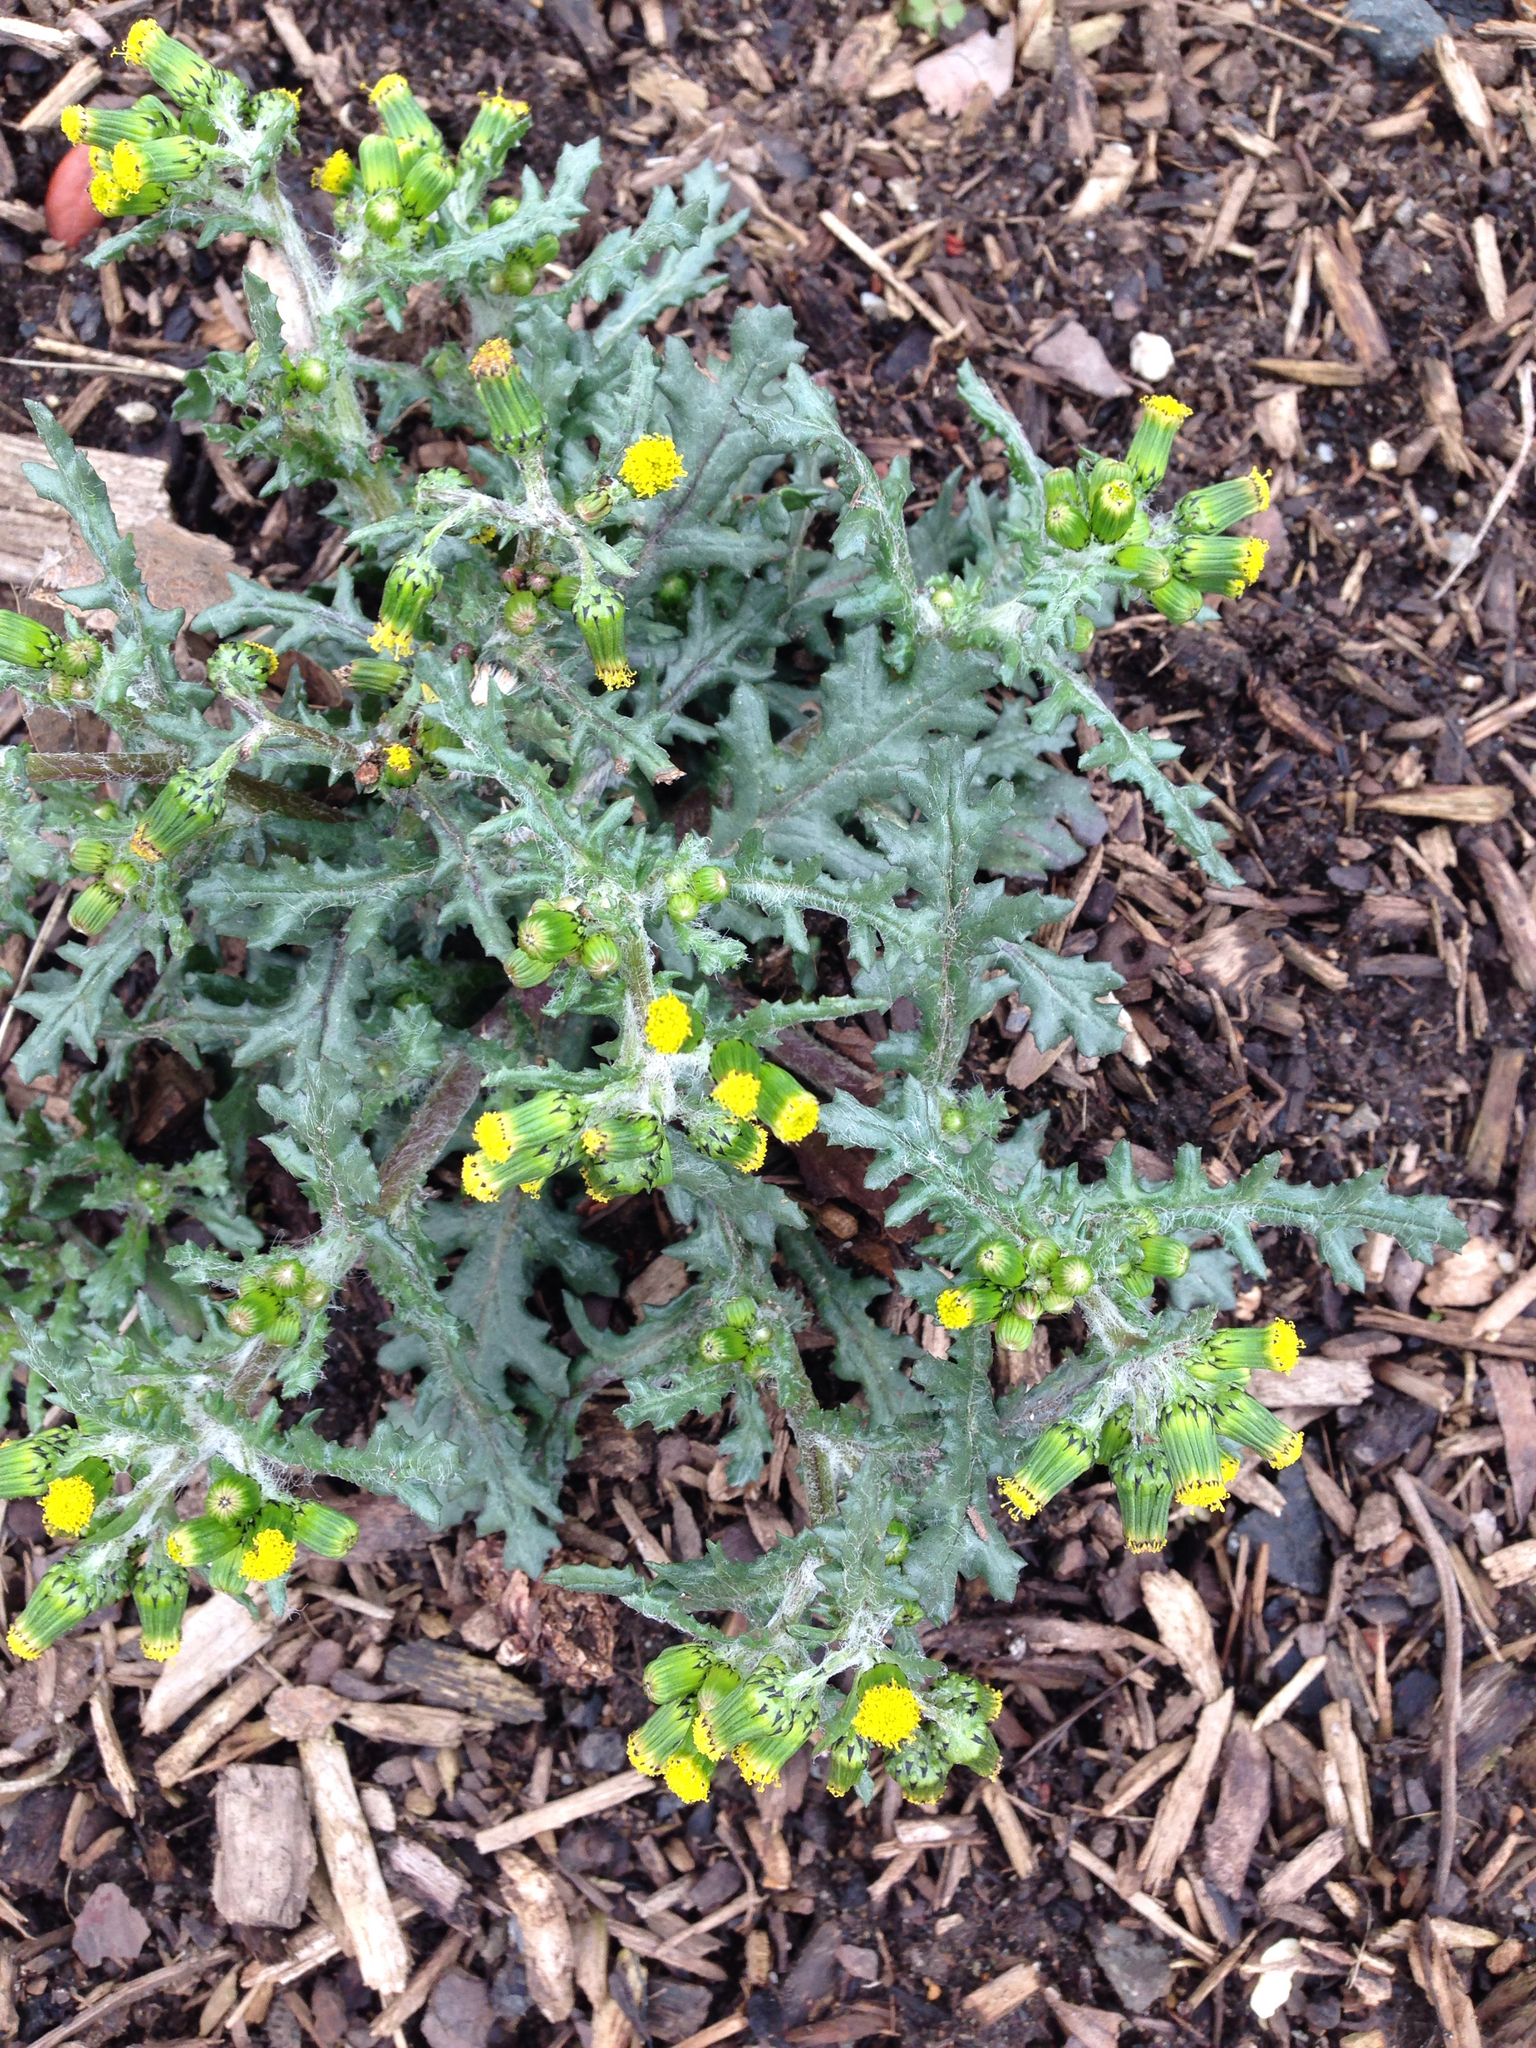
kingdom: Plantae
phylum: Tracheophyta
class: Magnoliopsida
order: Asterales
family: Asteraceae
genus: Senecio
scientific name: Senecio vulgaris
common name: Old-man-in-the-spring
